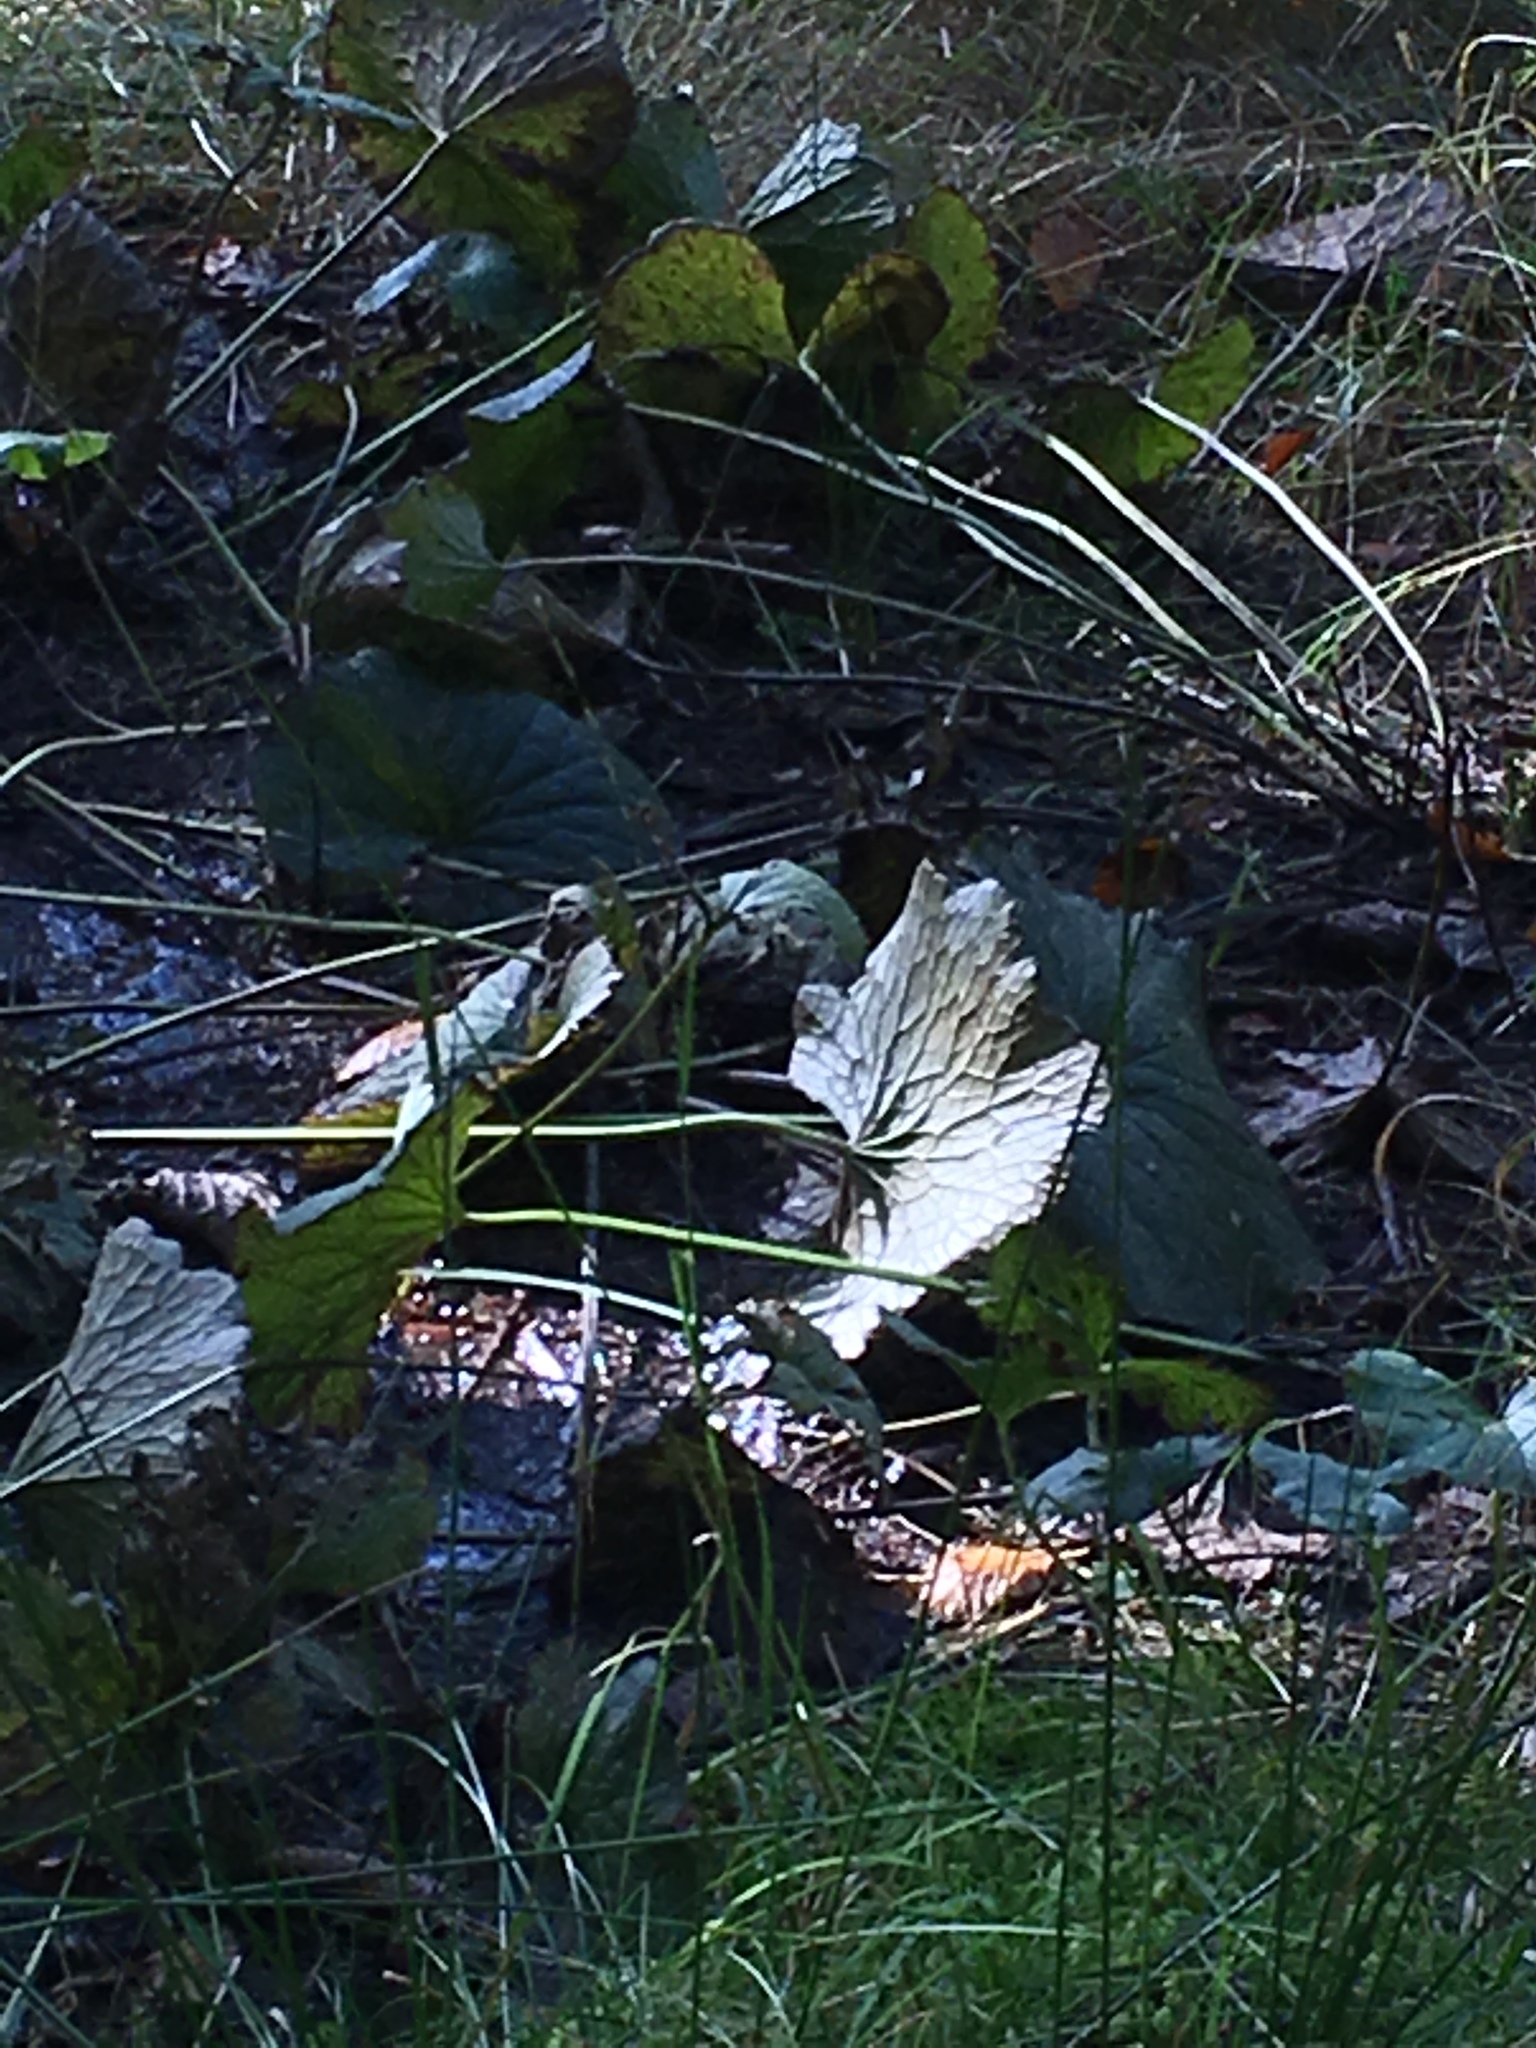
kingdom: Plantae
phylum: Tracheophyta
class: Magnoliopsida
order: Ranunculales
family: Ranunculaceae
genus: Caltha
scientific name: Caltha palustris
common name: Marsh marigold
